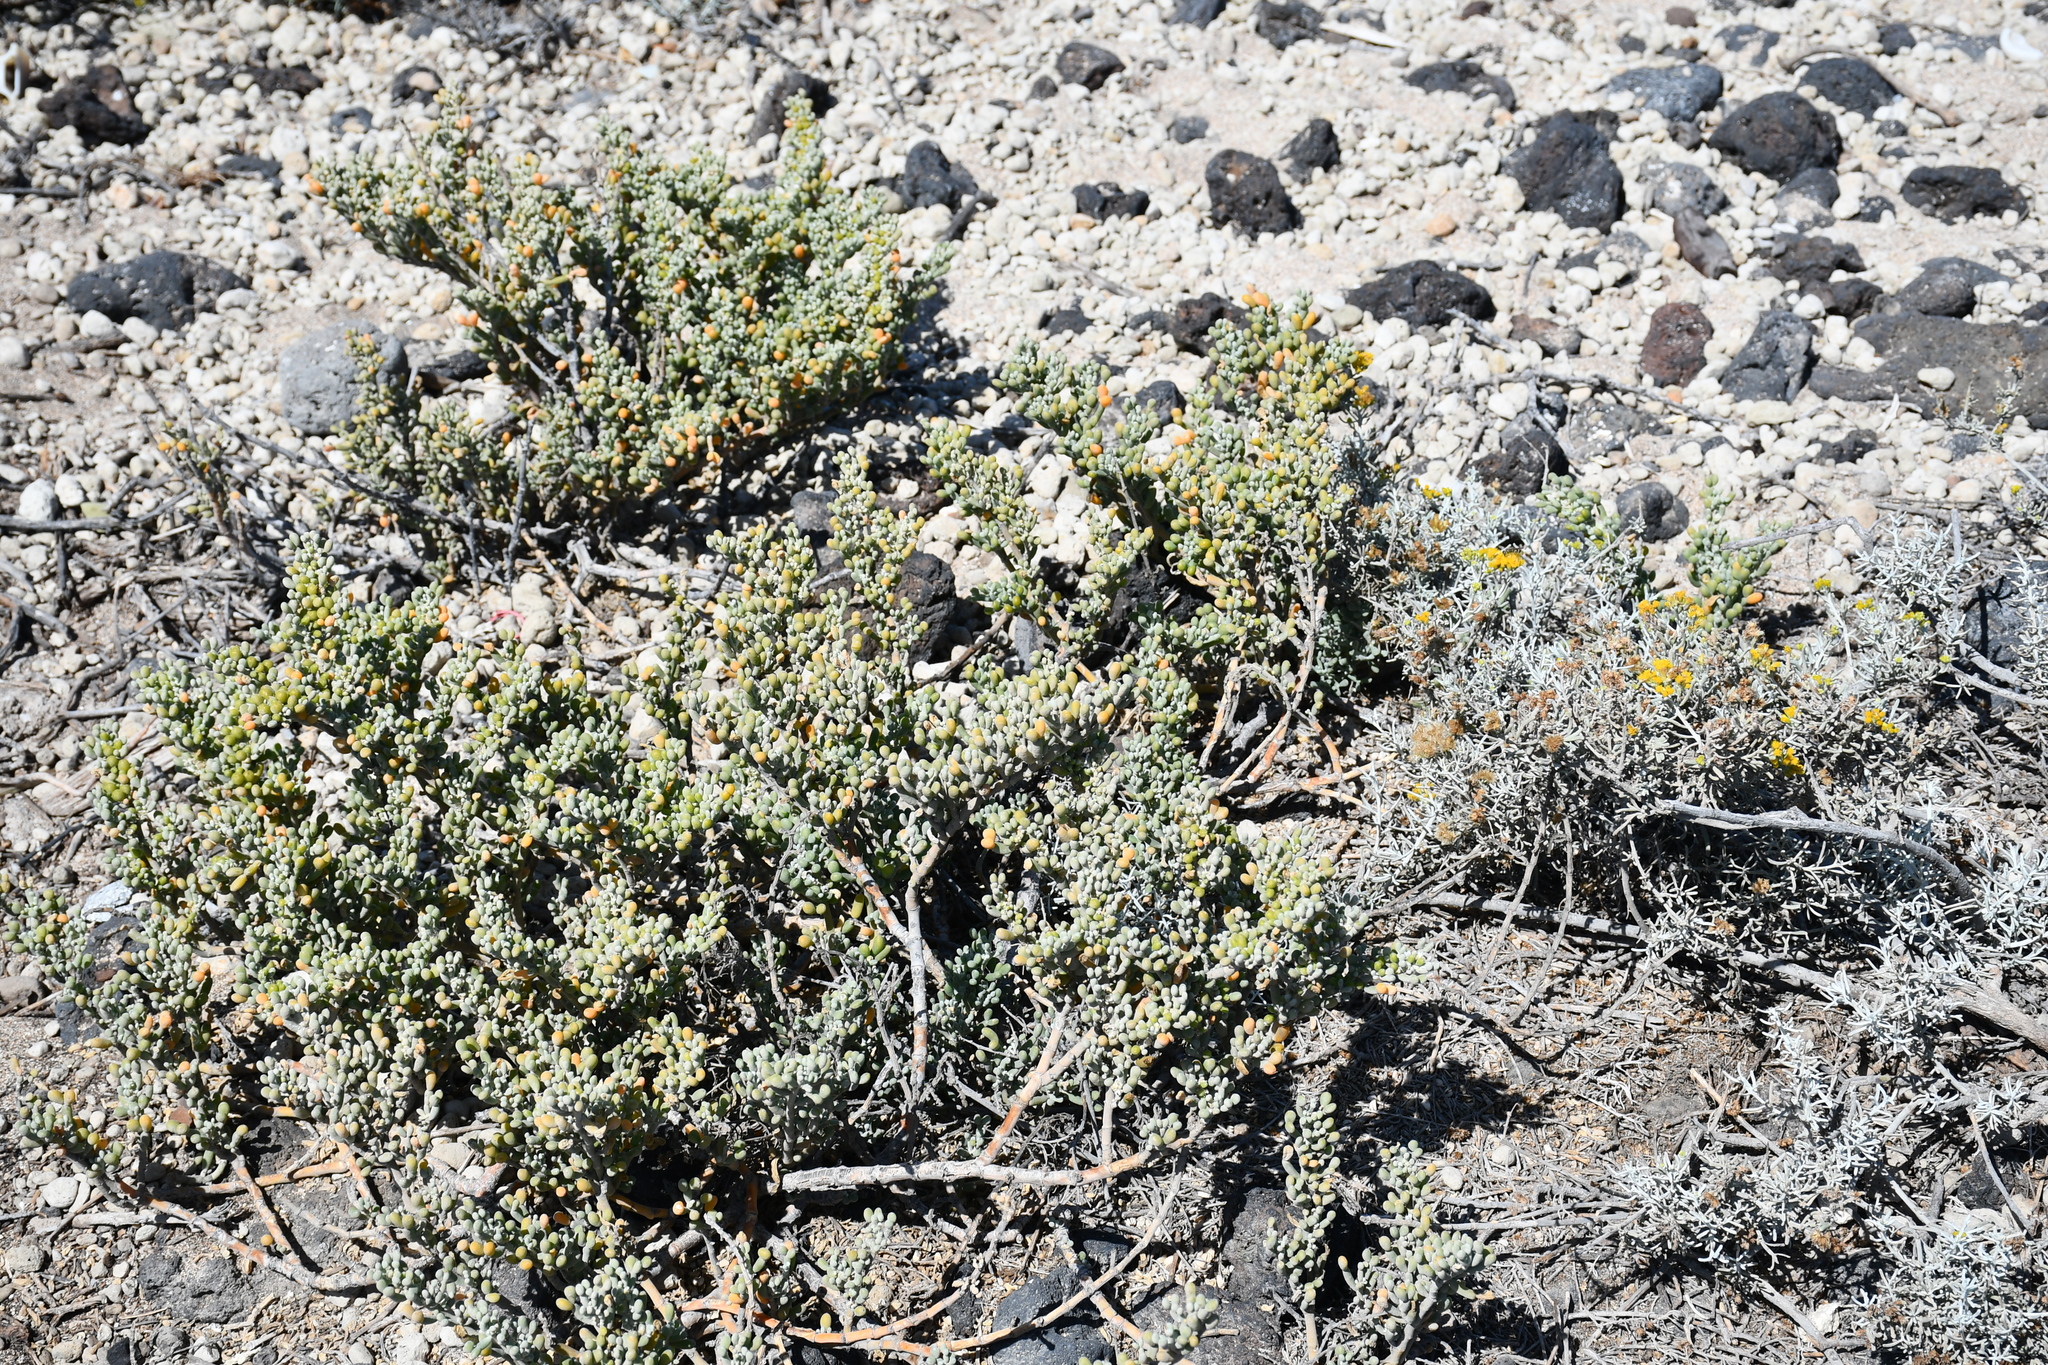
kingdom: Plantae
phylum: Tracheophyta
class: Magnoliopsida
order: Zygophyllales
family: Zygophyllaceae
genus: Tetraena
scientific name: Tetraena fontanesii
